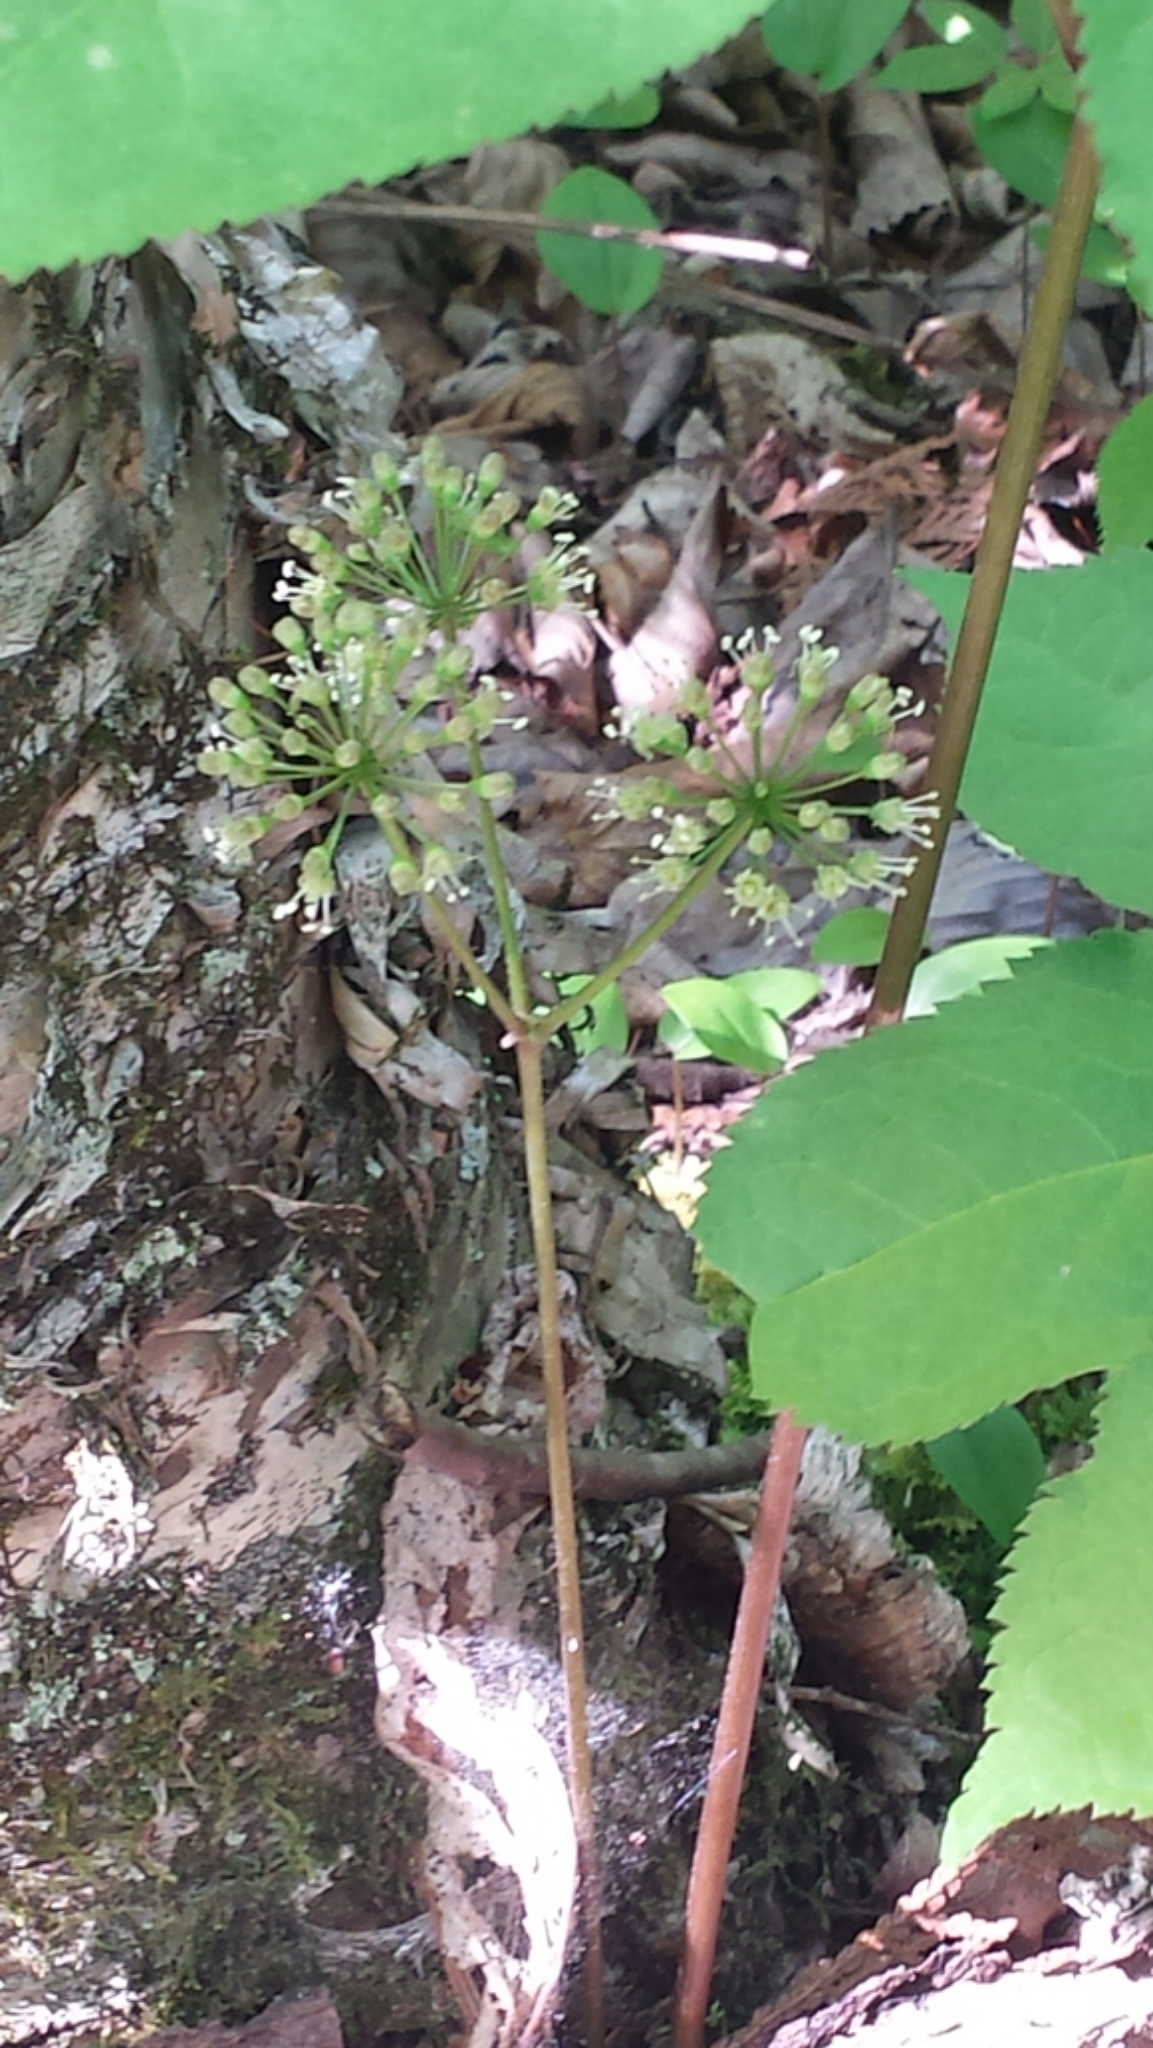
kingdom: Plantae
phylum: Tracheophyta
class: Magnoliopsida
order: Apiales
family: Araliaceae
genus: Aralia
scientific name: Aralia nudicaulis
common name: Wild sarsaparilla
